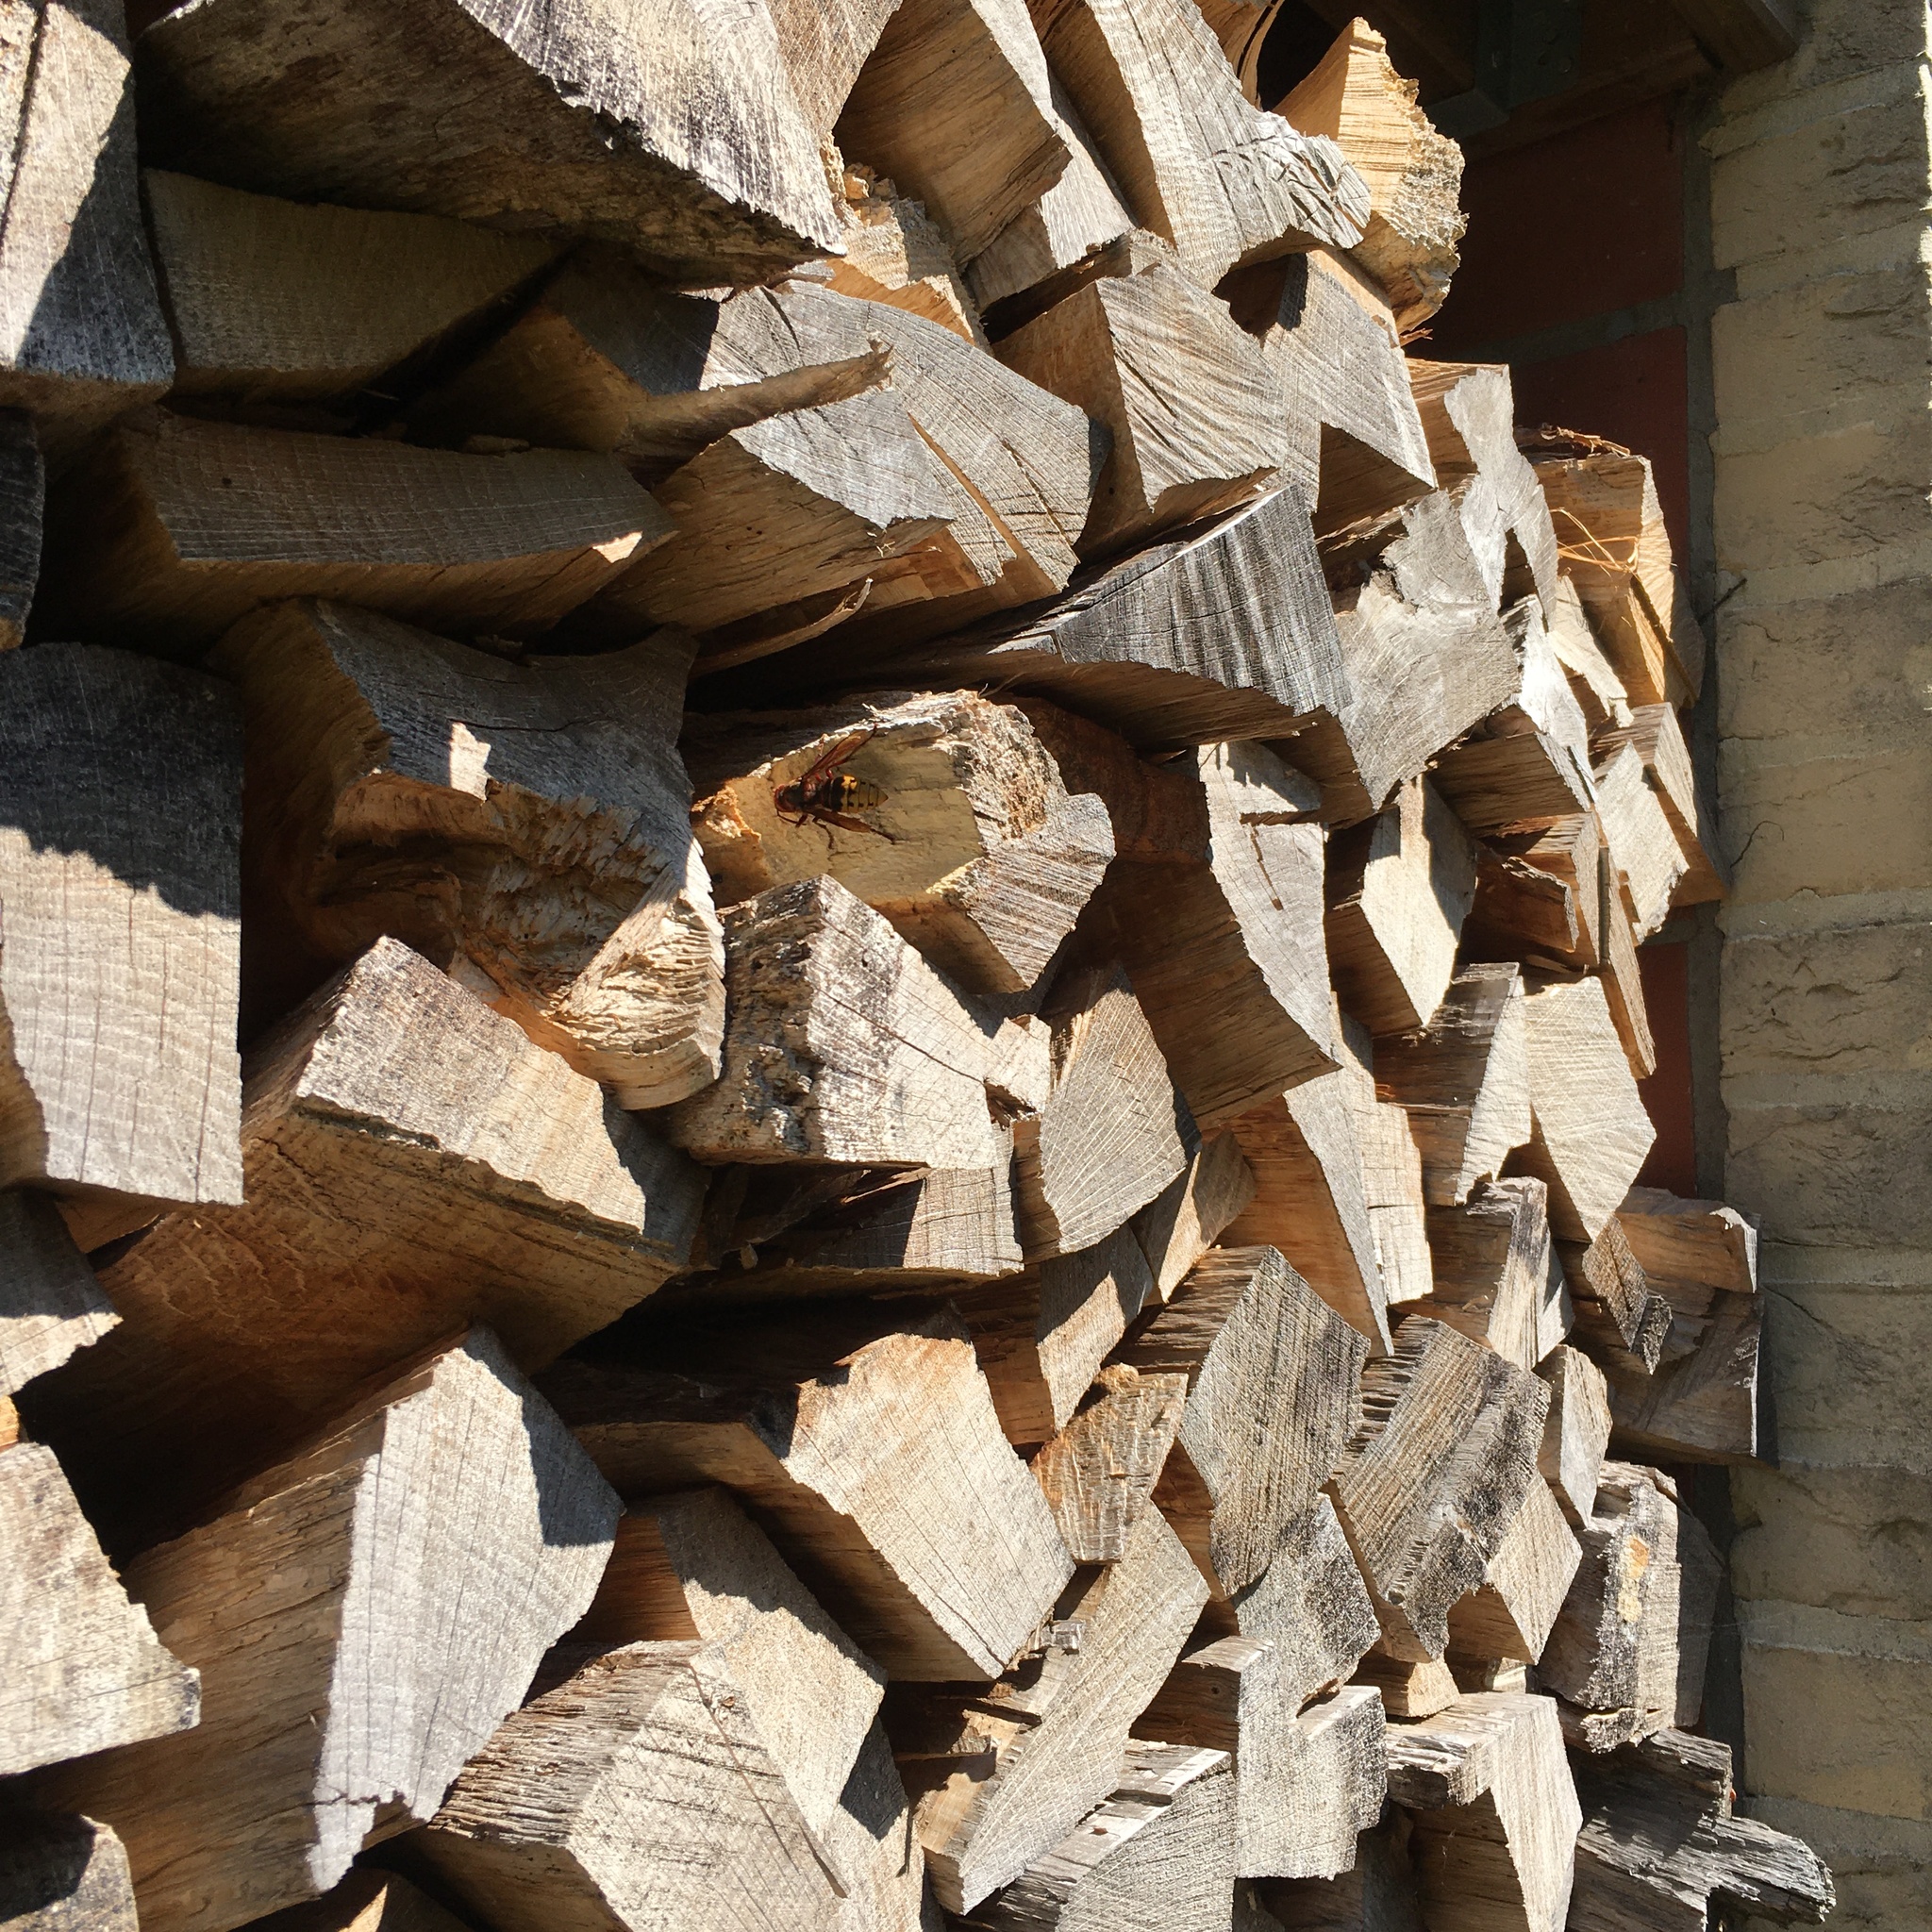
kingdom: Animalia
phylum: Arthropoda
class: Insecta
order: Hymenoptera
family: Vespidae
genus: Vespa
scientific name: Vespa crabro
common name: Hornet
